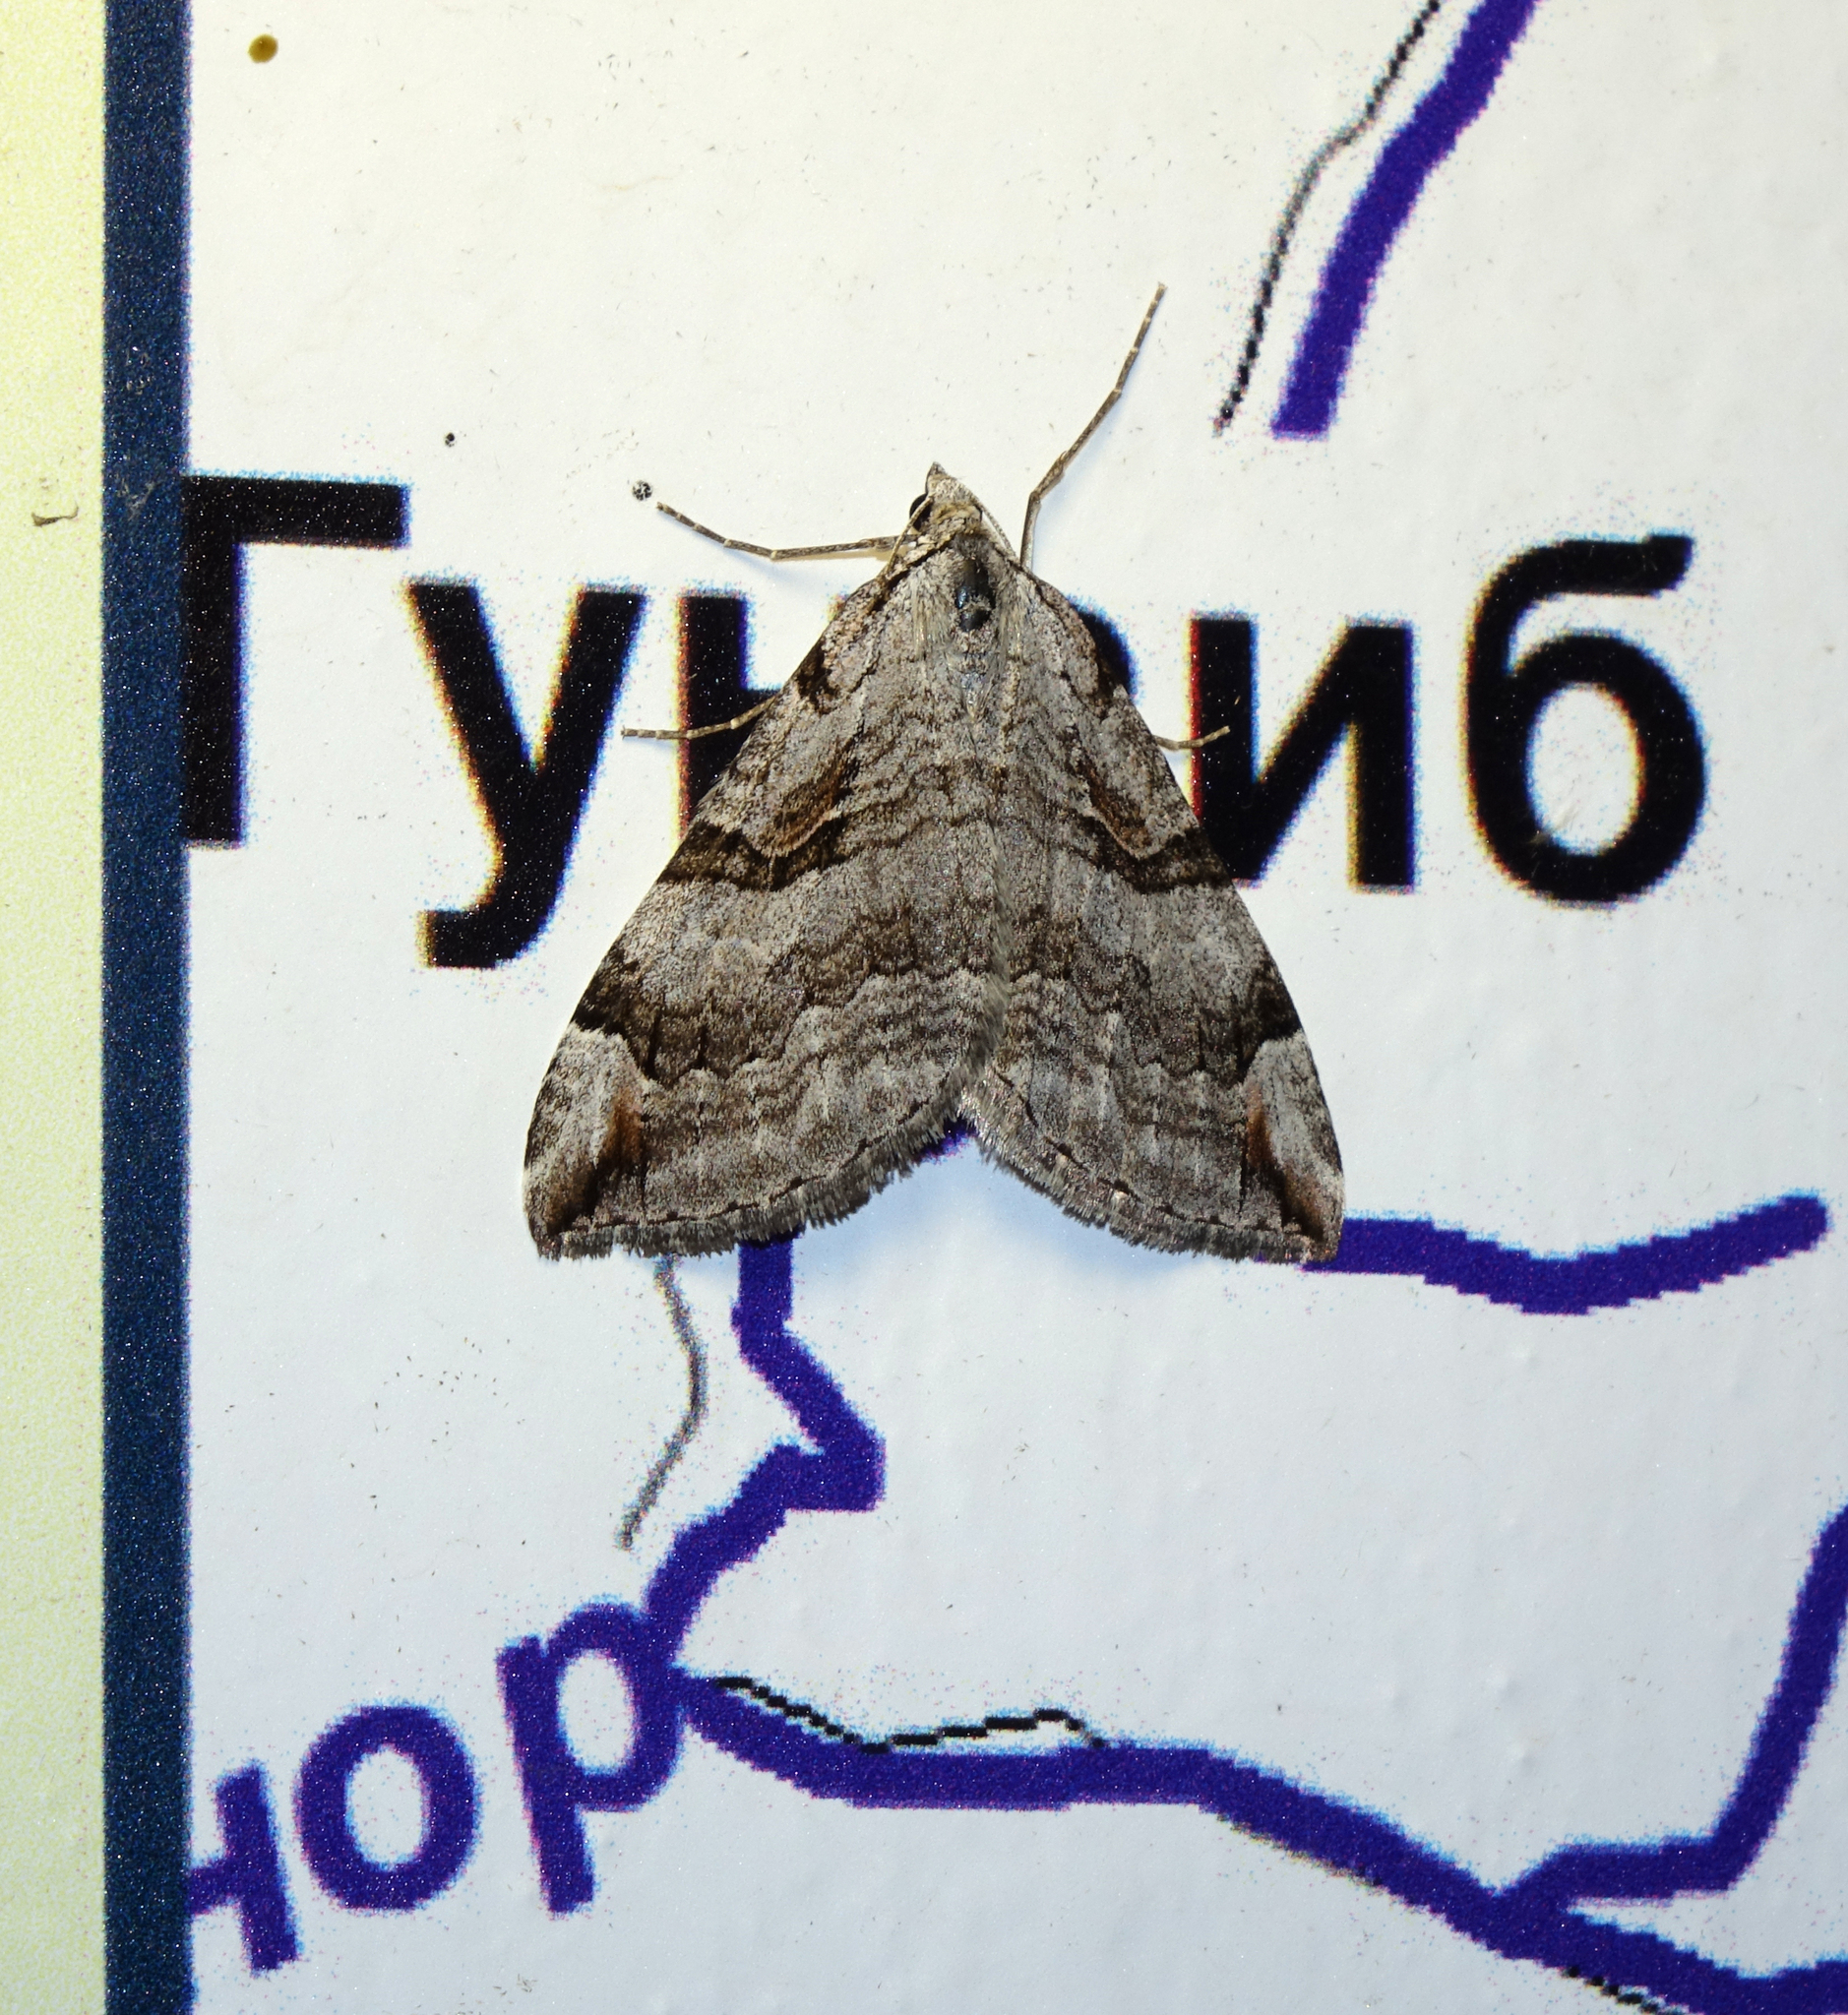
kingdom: Animalia
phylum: Arthropoda
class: Insecta
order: Lepidoptera
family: Geometridae
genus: Aplocera
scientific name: Aplocera plagiata
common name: Treble-bar
